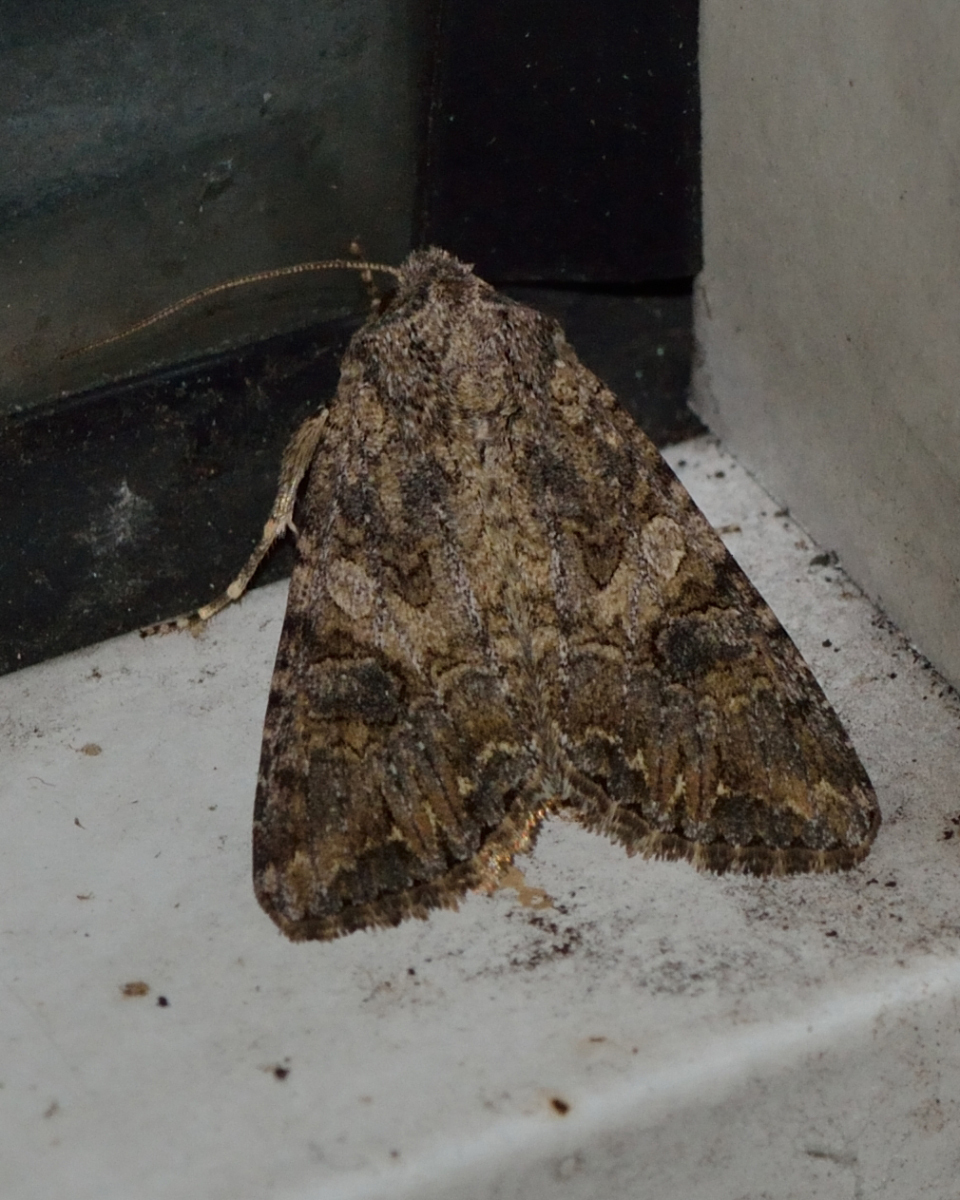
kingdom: Animalia
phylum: Arthropoda
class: Insecta
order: Lepidoptera
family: Noctuidae
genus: Anarta
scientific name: Anarta trifolii
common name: Clover cutworm moth
